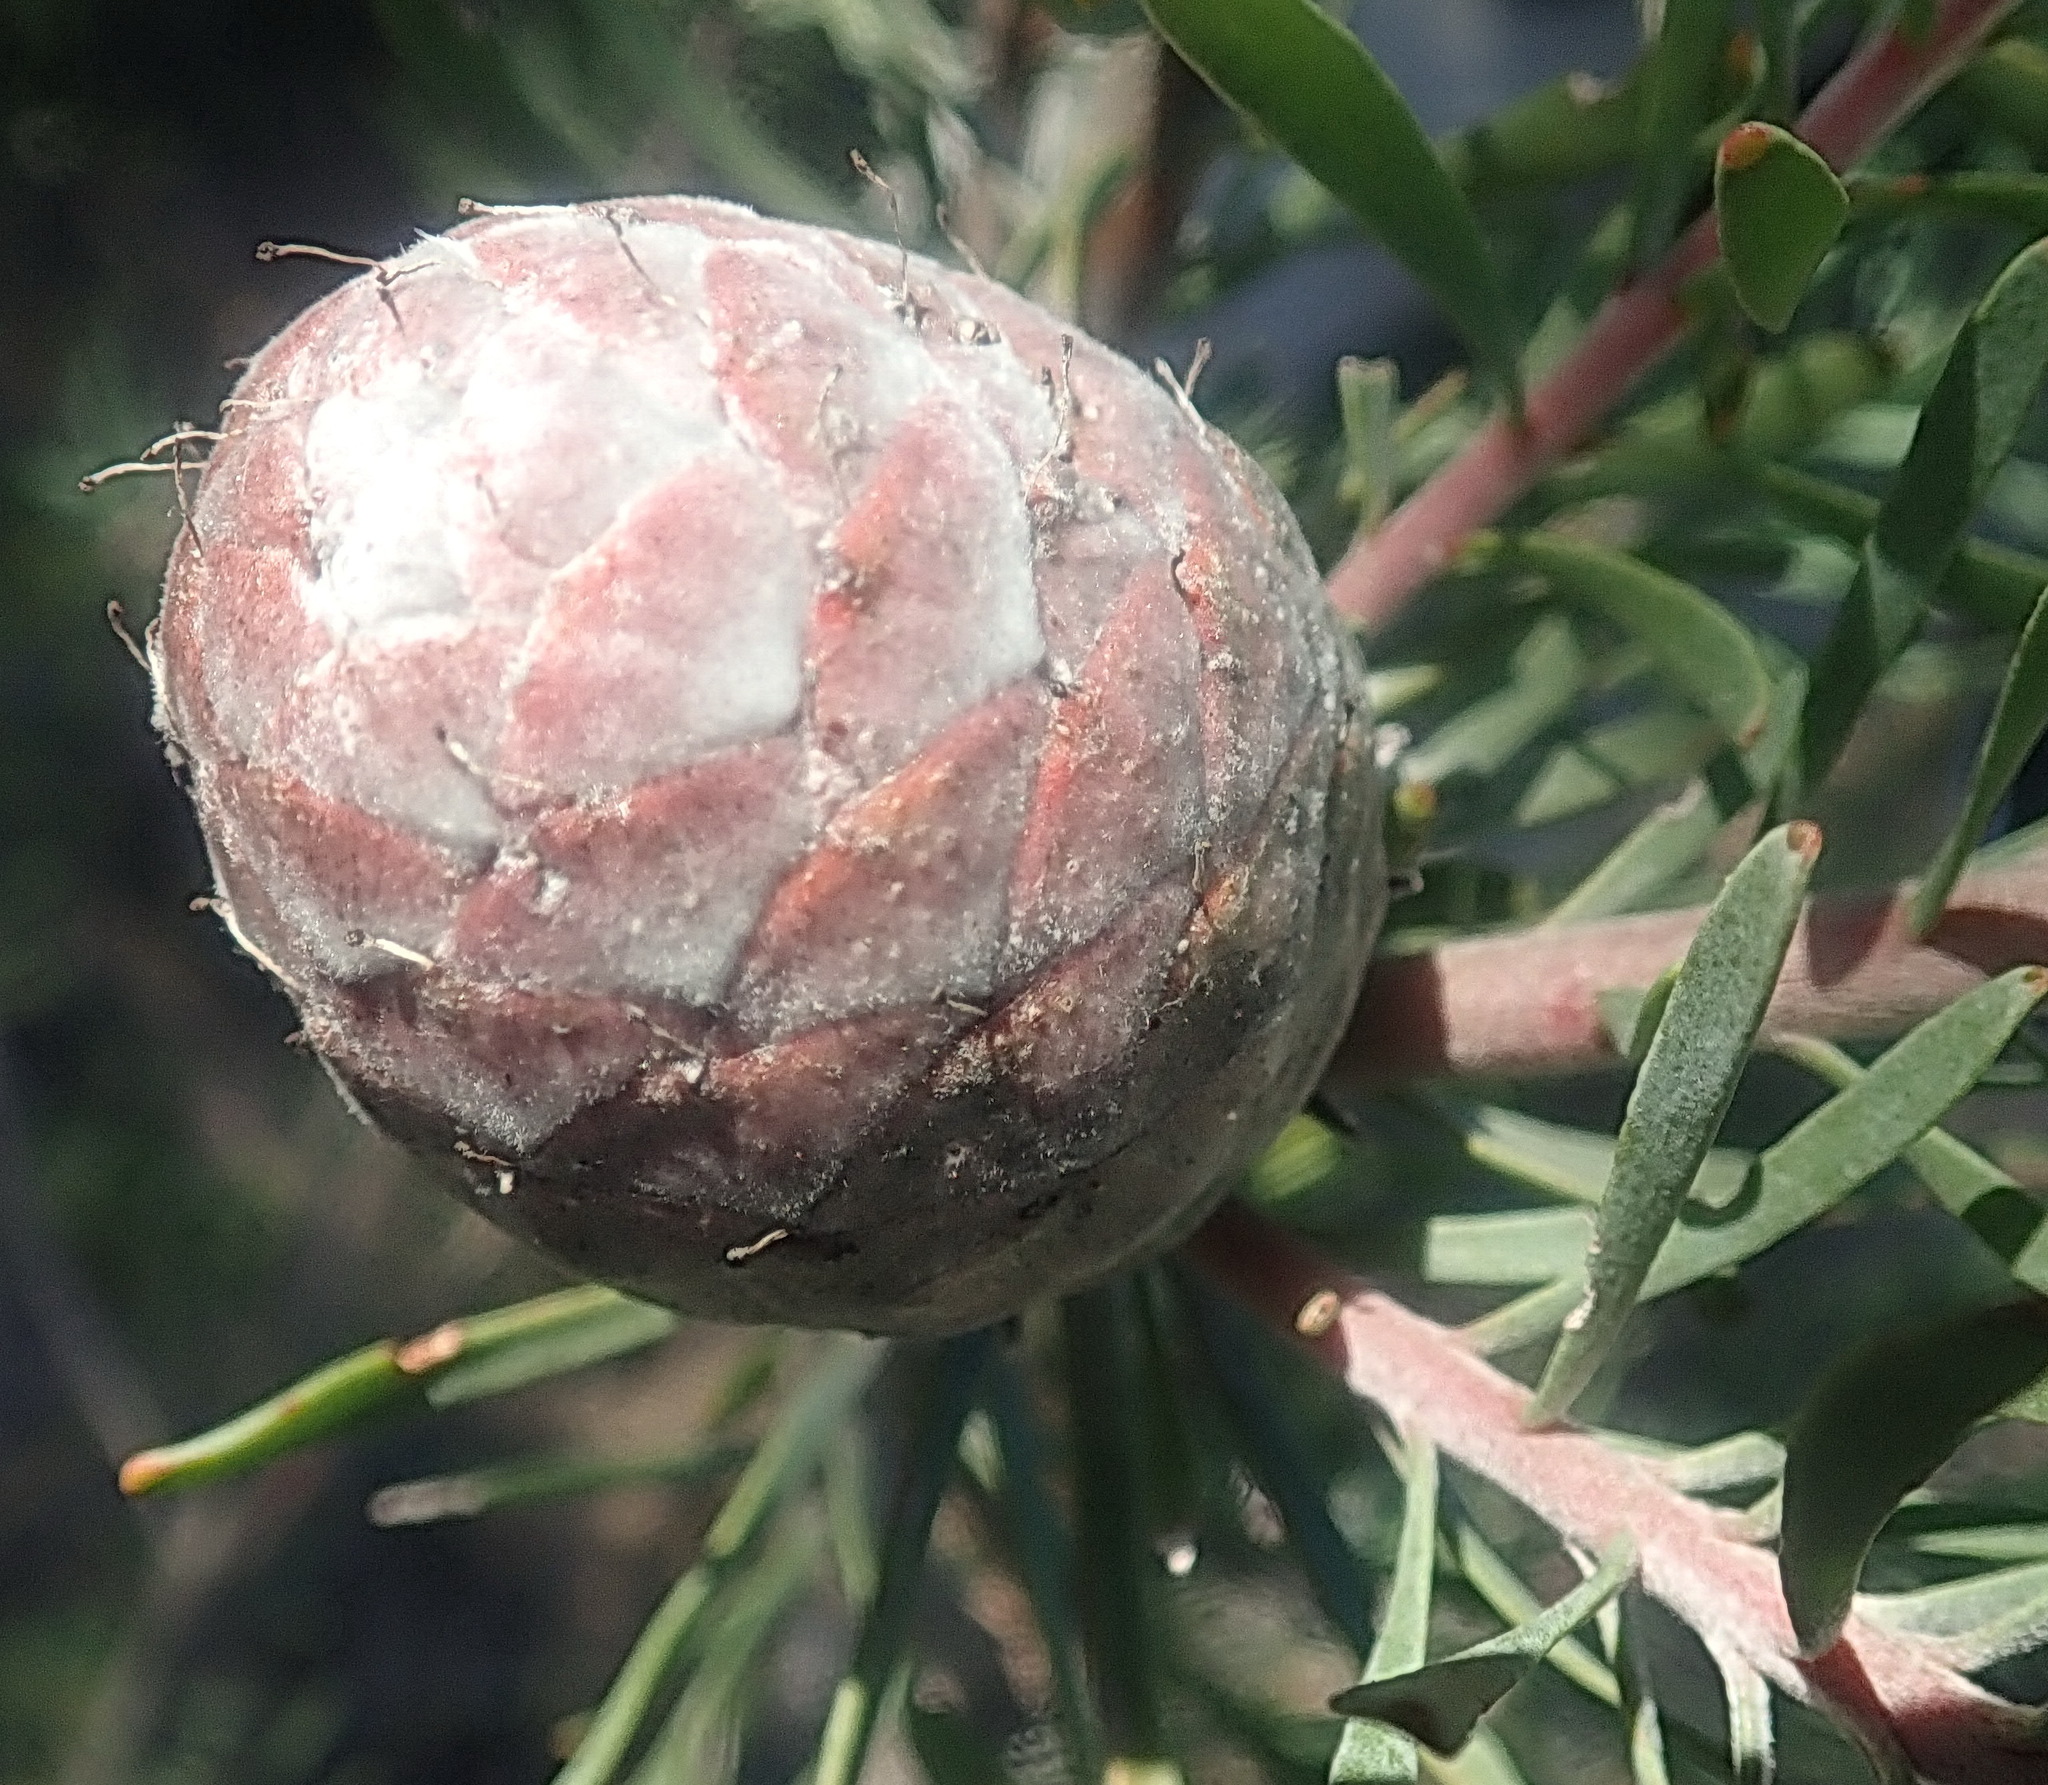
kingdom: Plantae
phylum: Tracheophyta
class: Magnoliopsida
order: Proteales
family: Proteaceae
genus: Leucadendron
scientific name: Leucadendron galpinii
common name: Hairless conebush
